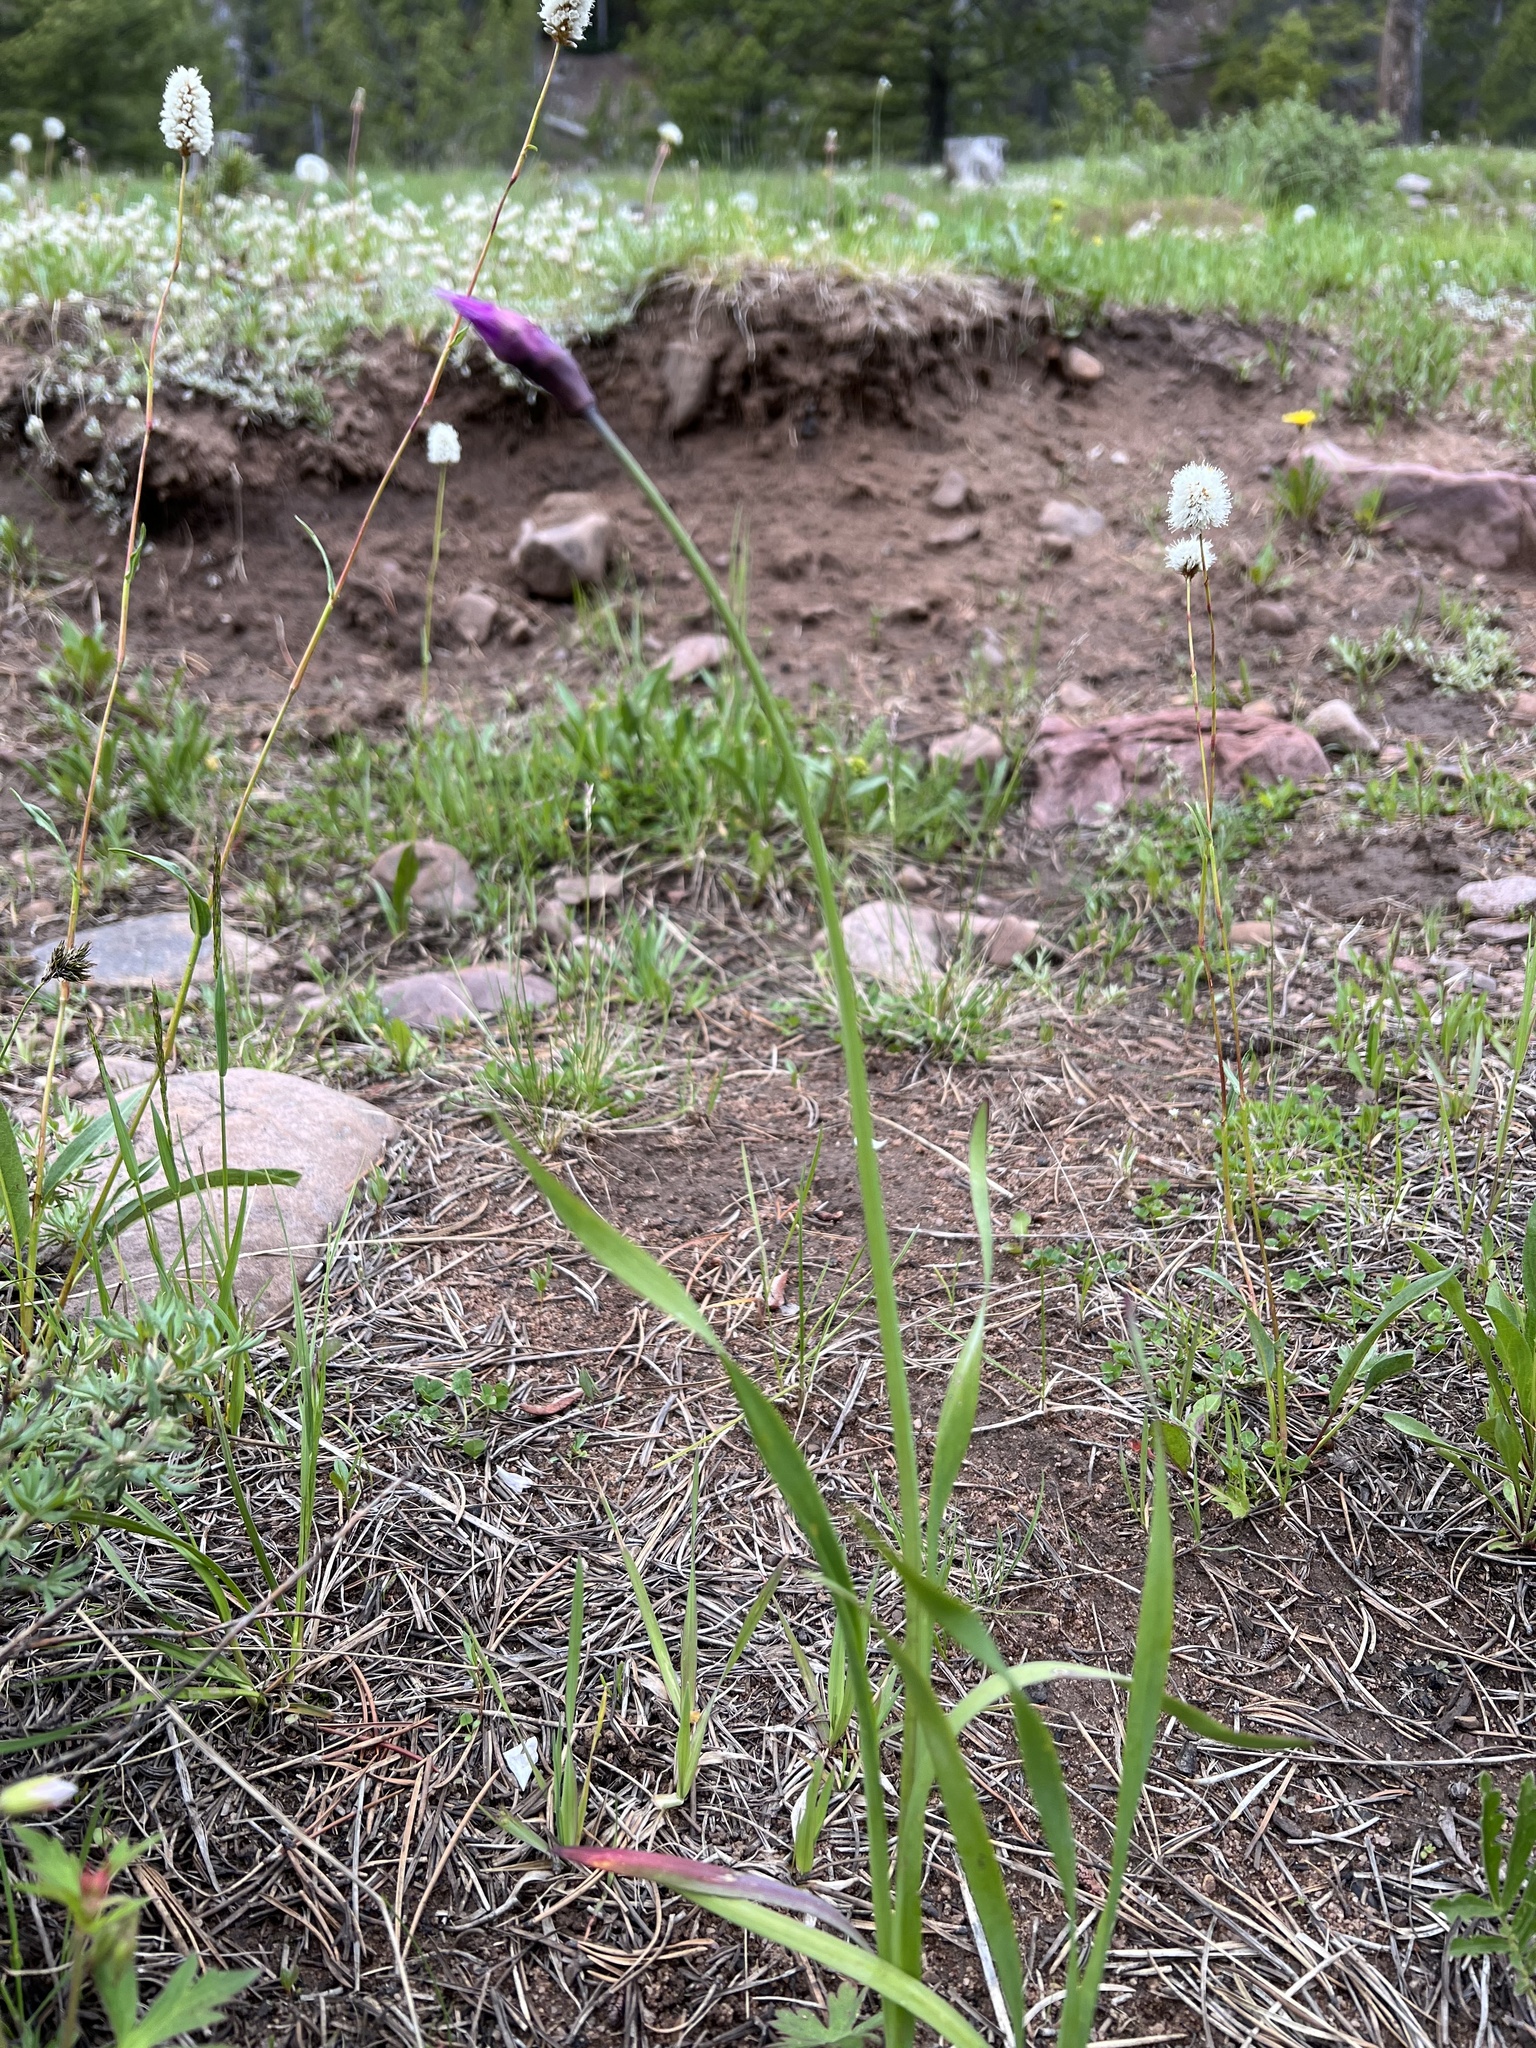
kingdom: Plantae
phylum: Tracheophyta
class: Liliopsida
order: Asparagales
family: Amaryllidaceae
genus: Allium
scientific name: Allium brevistylum
